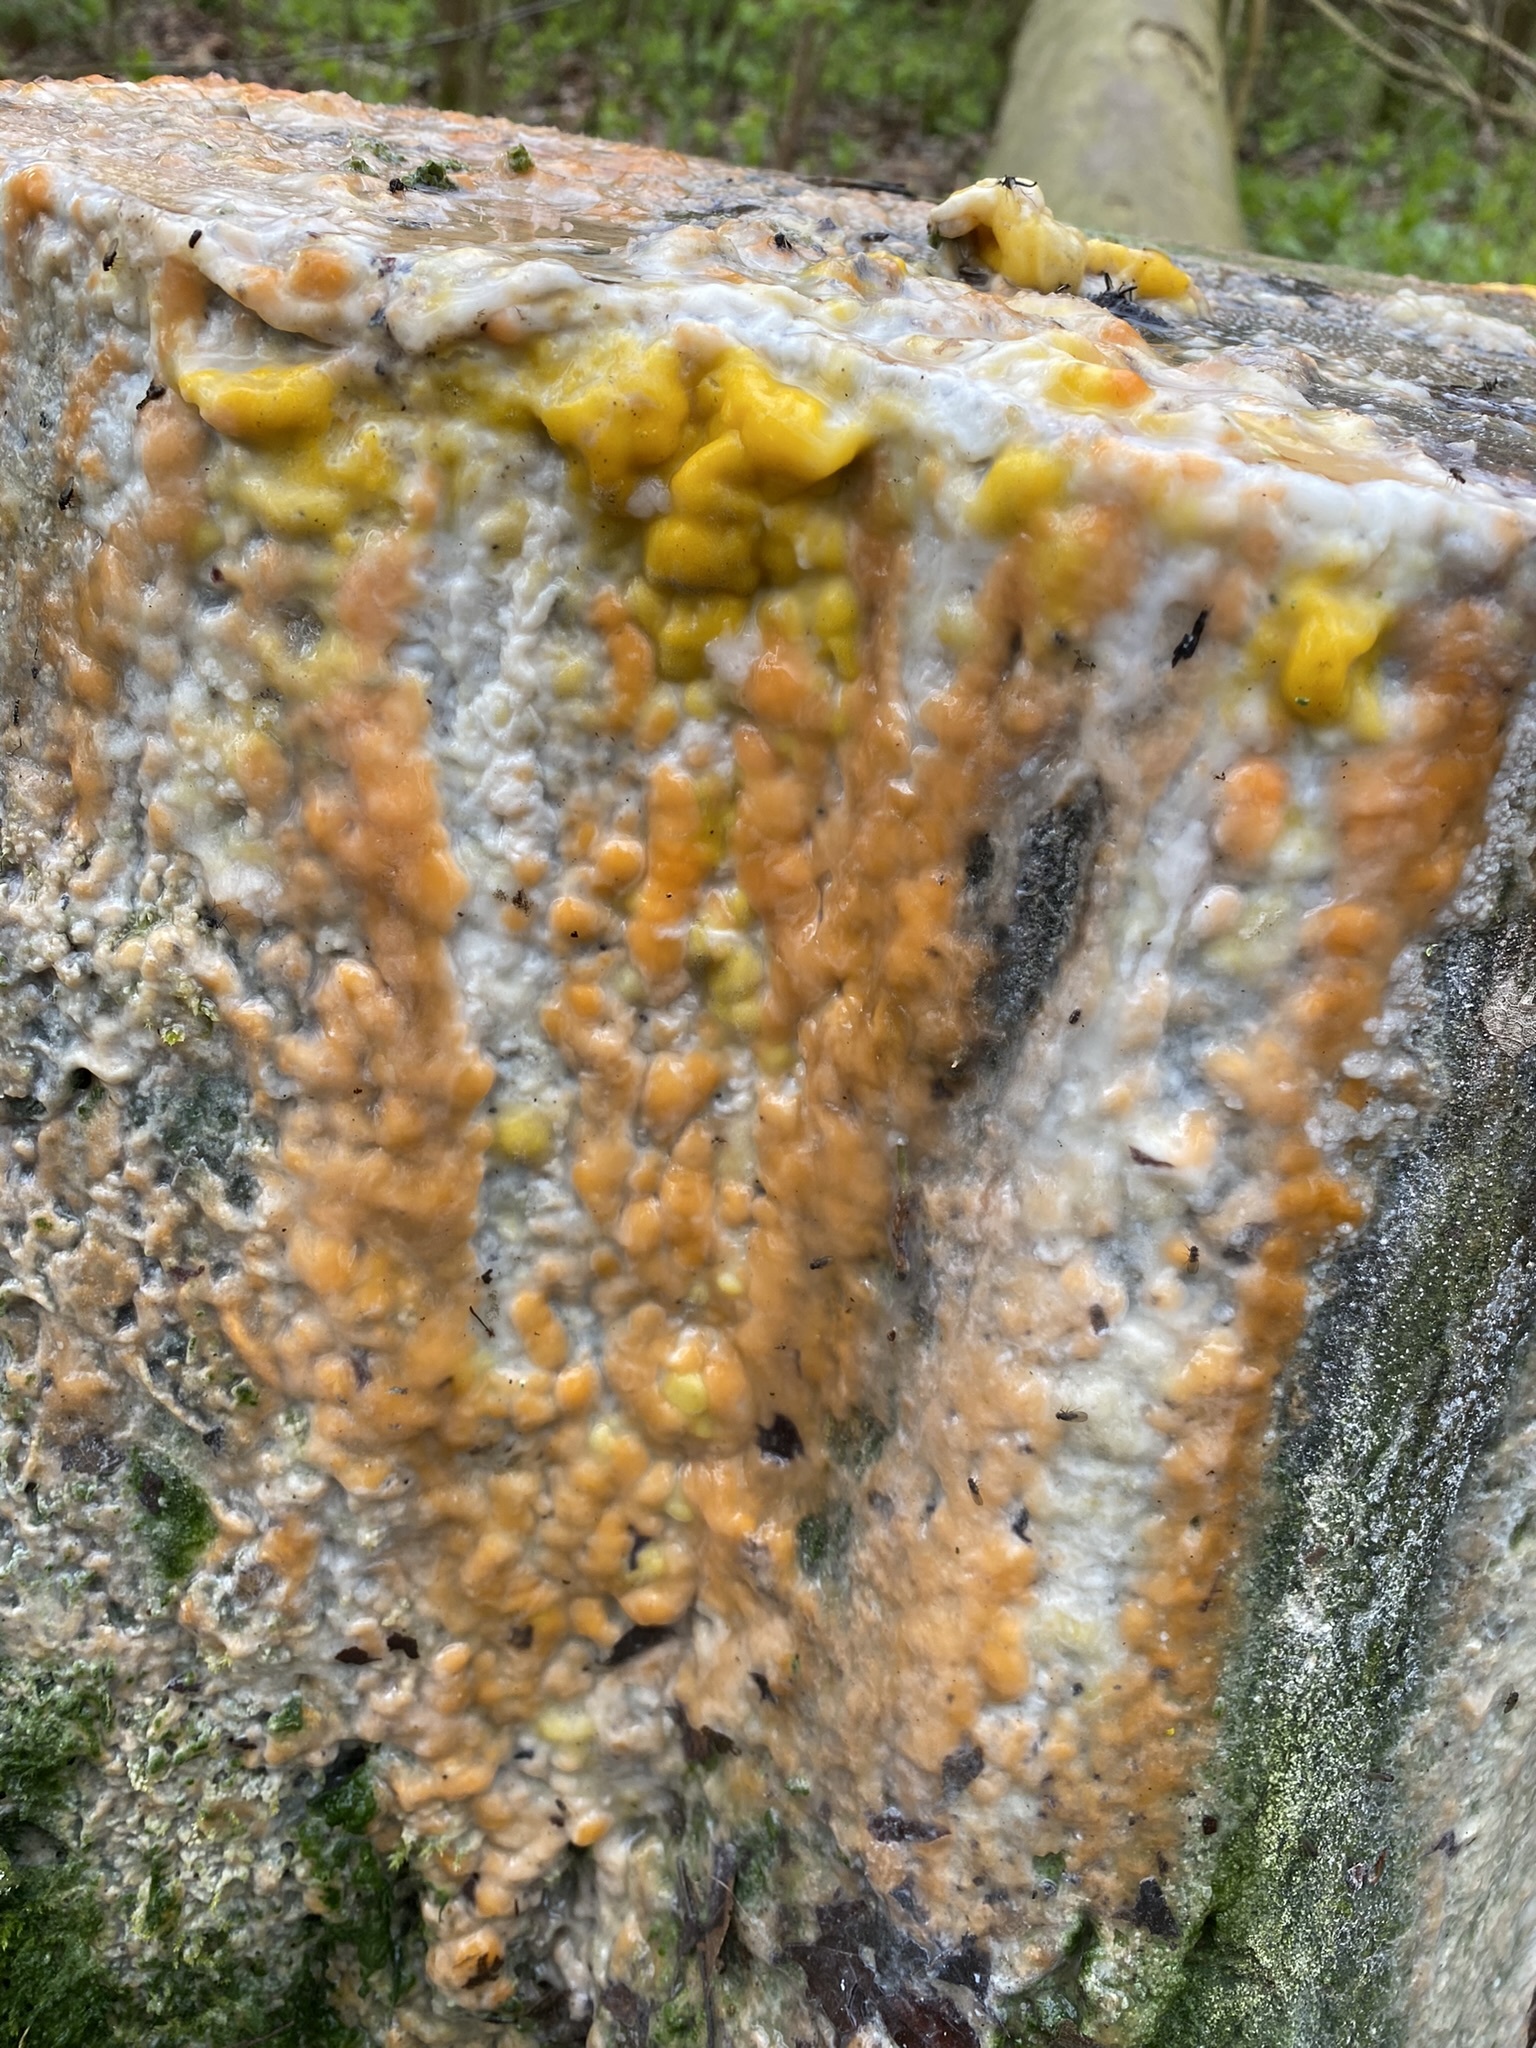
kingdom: Fungi
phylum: Basidiomycota
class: Tremellomycetes
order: Cystofilobasidiales
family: Cystofilobasidiaceae
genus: Cystofilobasidium
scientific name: Cystofilobasidium macerans
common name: Sap yeast
